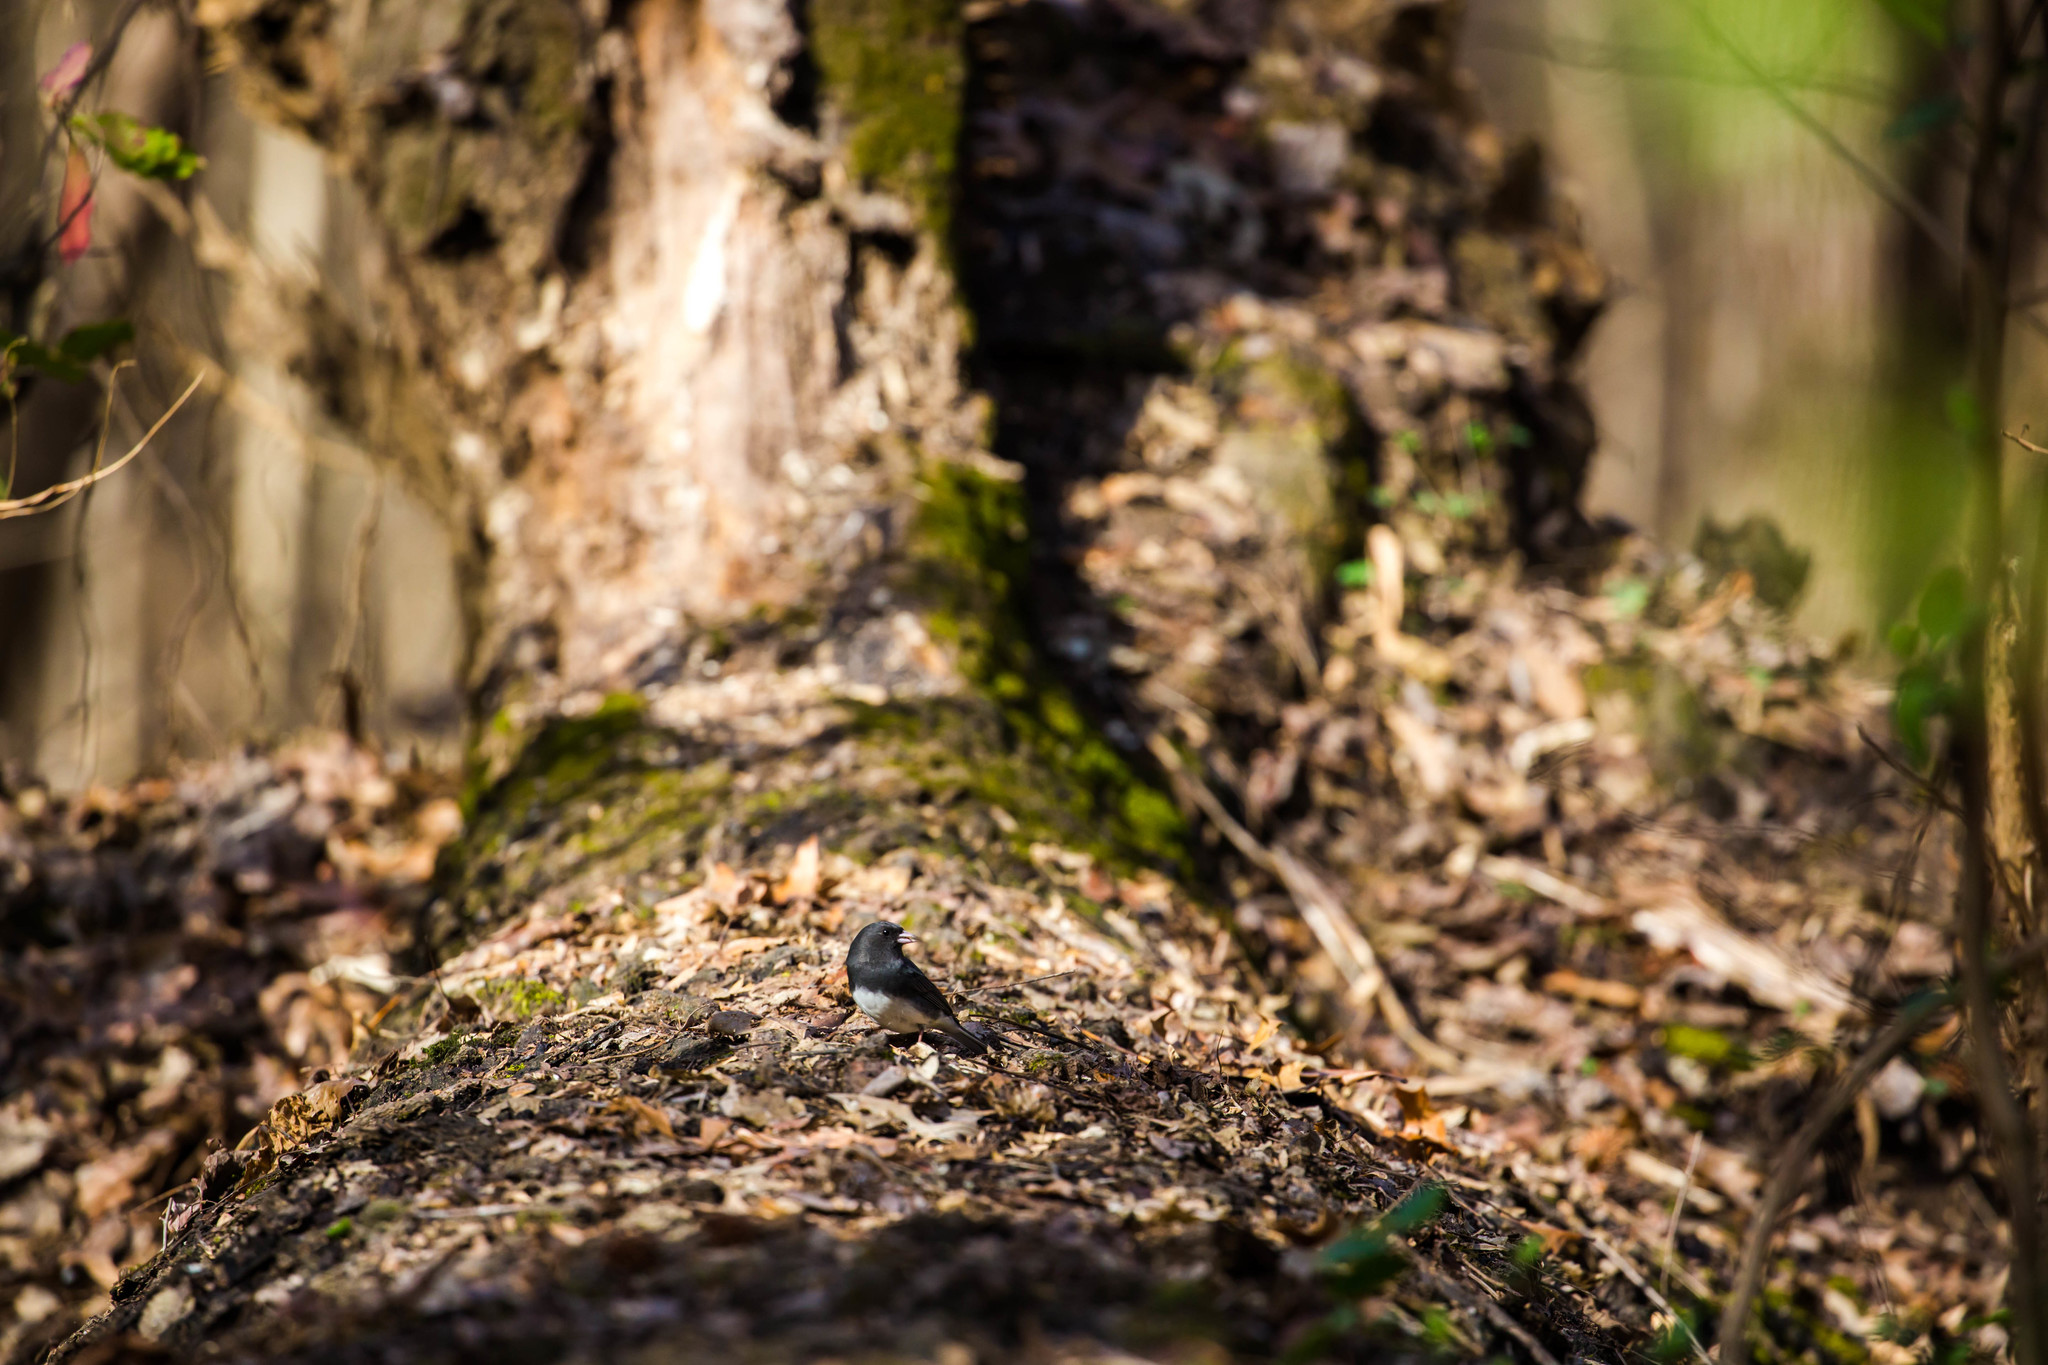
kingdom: Animalia
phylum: Chordata
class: Aves
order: Passeriformes
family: Passerellidae
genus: Junco
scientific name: Junco hyemalis
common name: Dark-eyed junco
